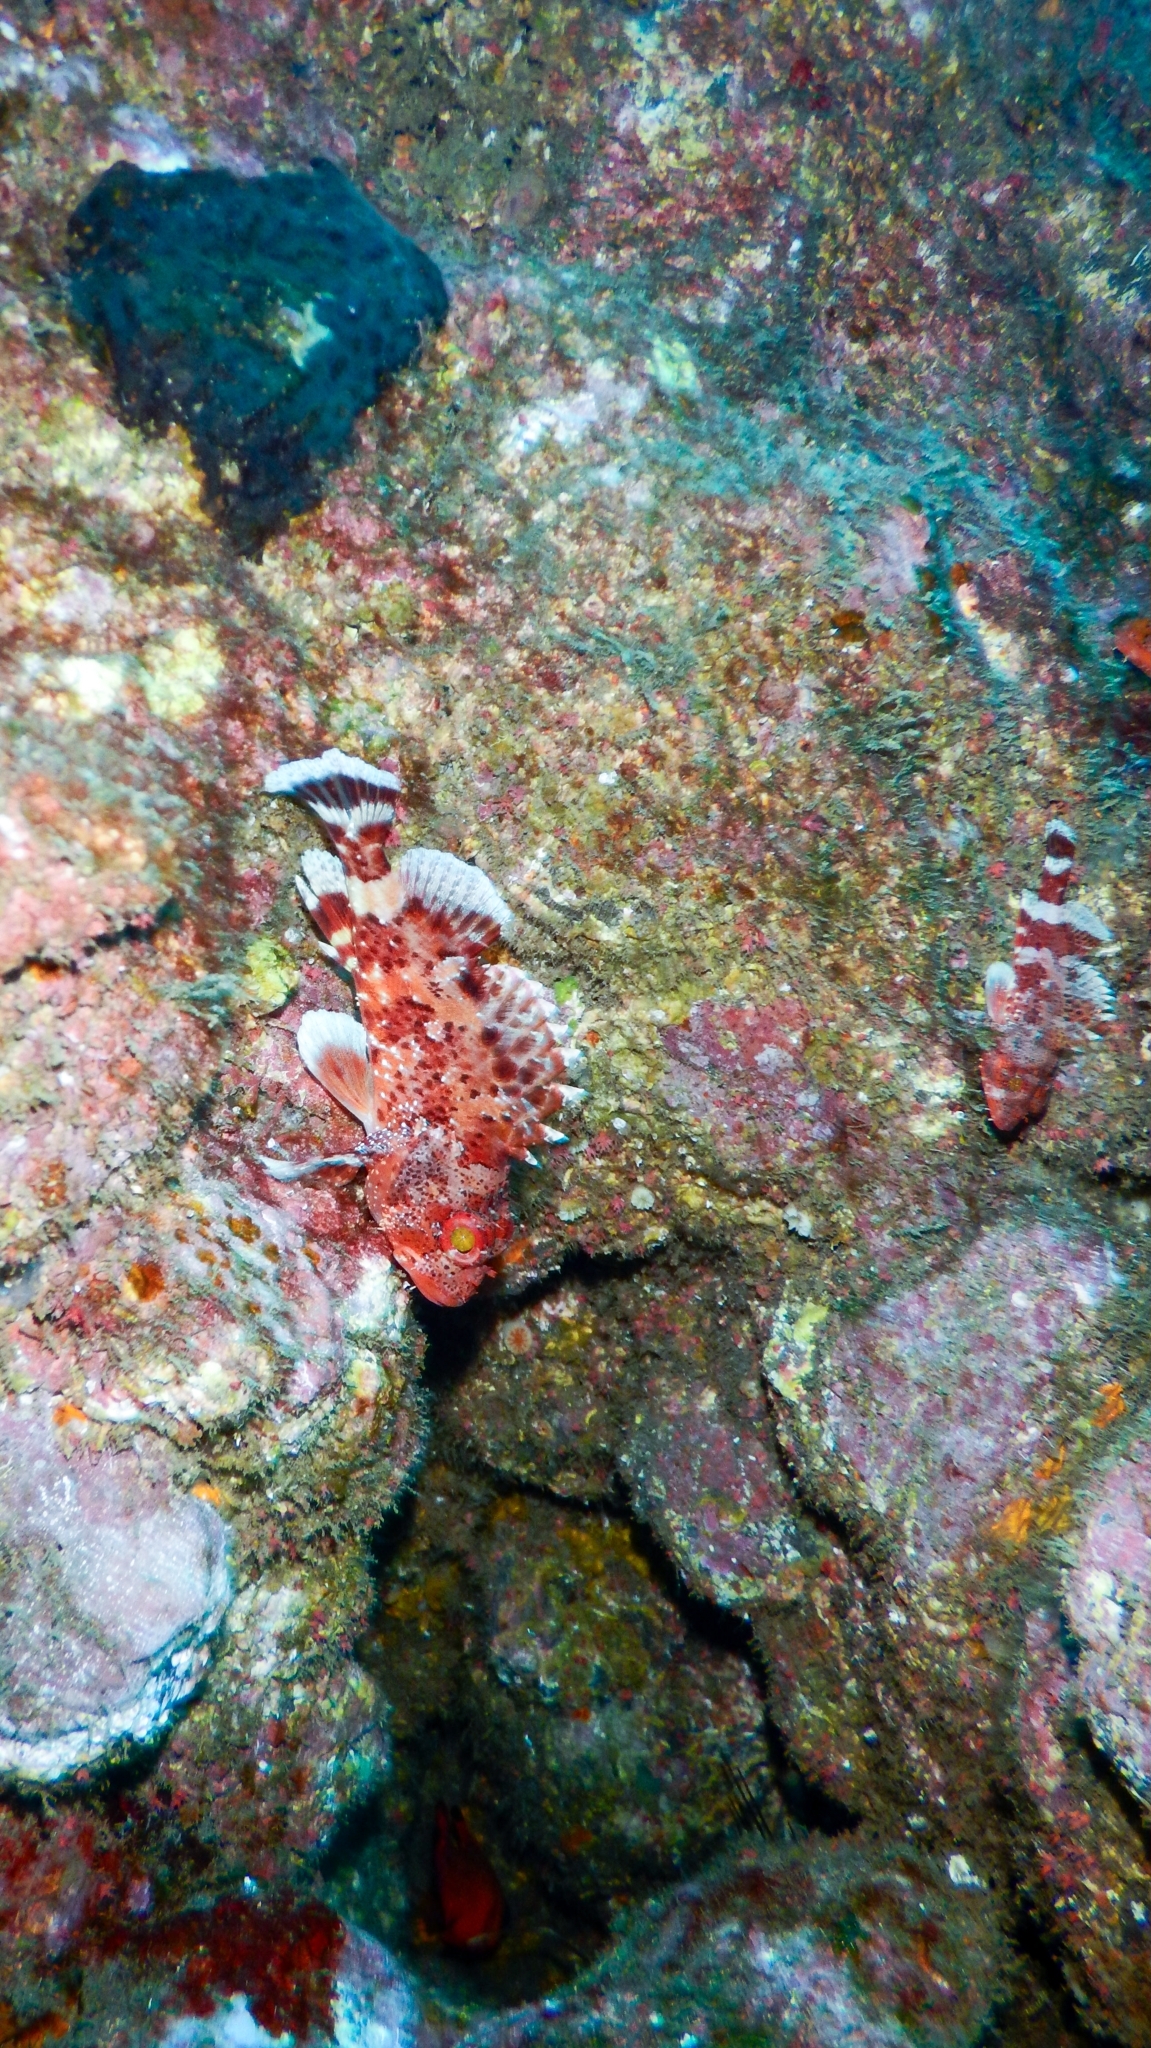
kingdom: Animalia
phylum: Chordata
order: Scorpaeniformes
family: Scorpaenidae
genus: Scorpaena
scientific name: Scorpaena maderensis
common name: Madeira rockfish
